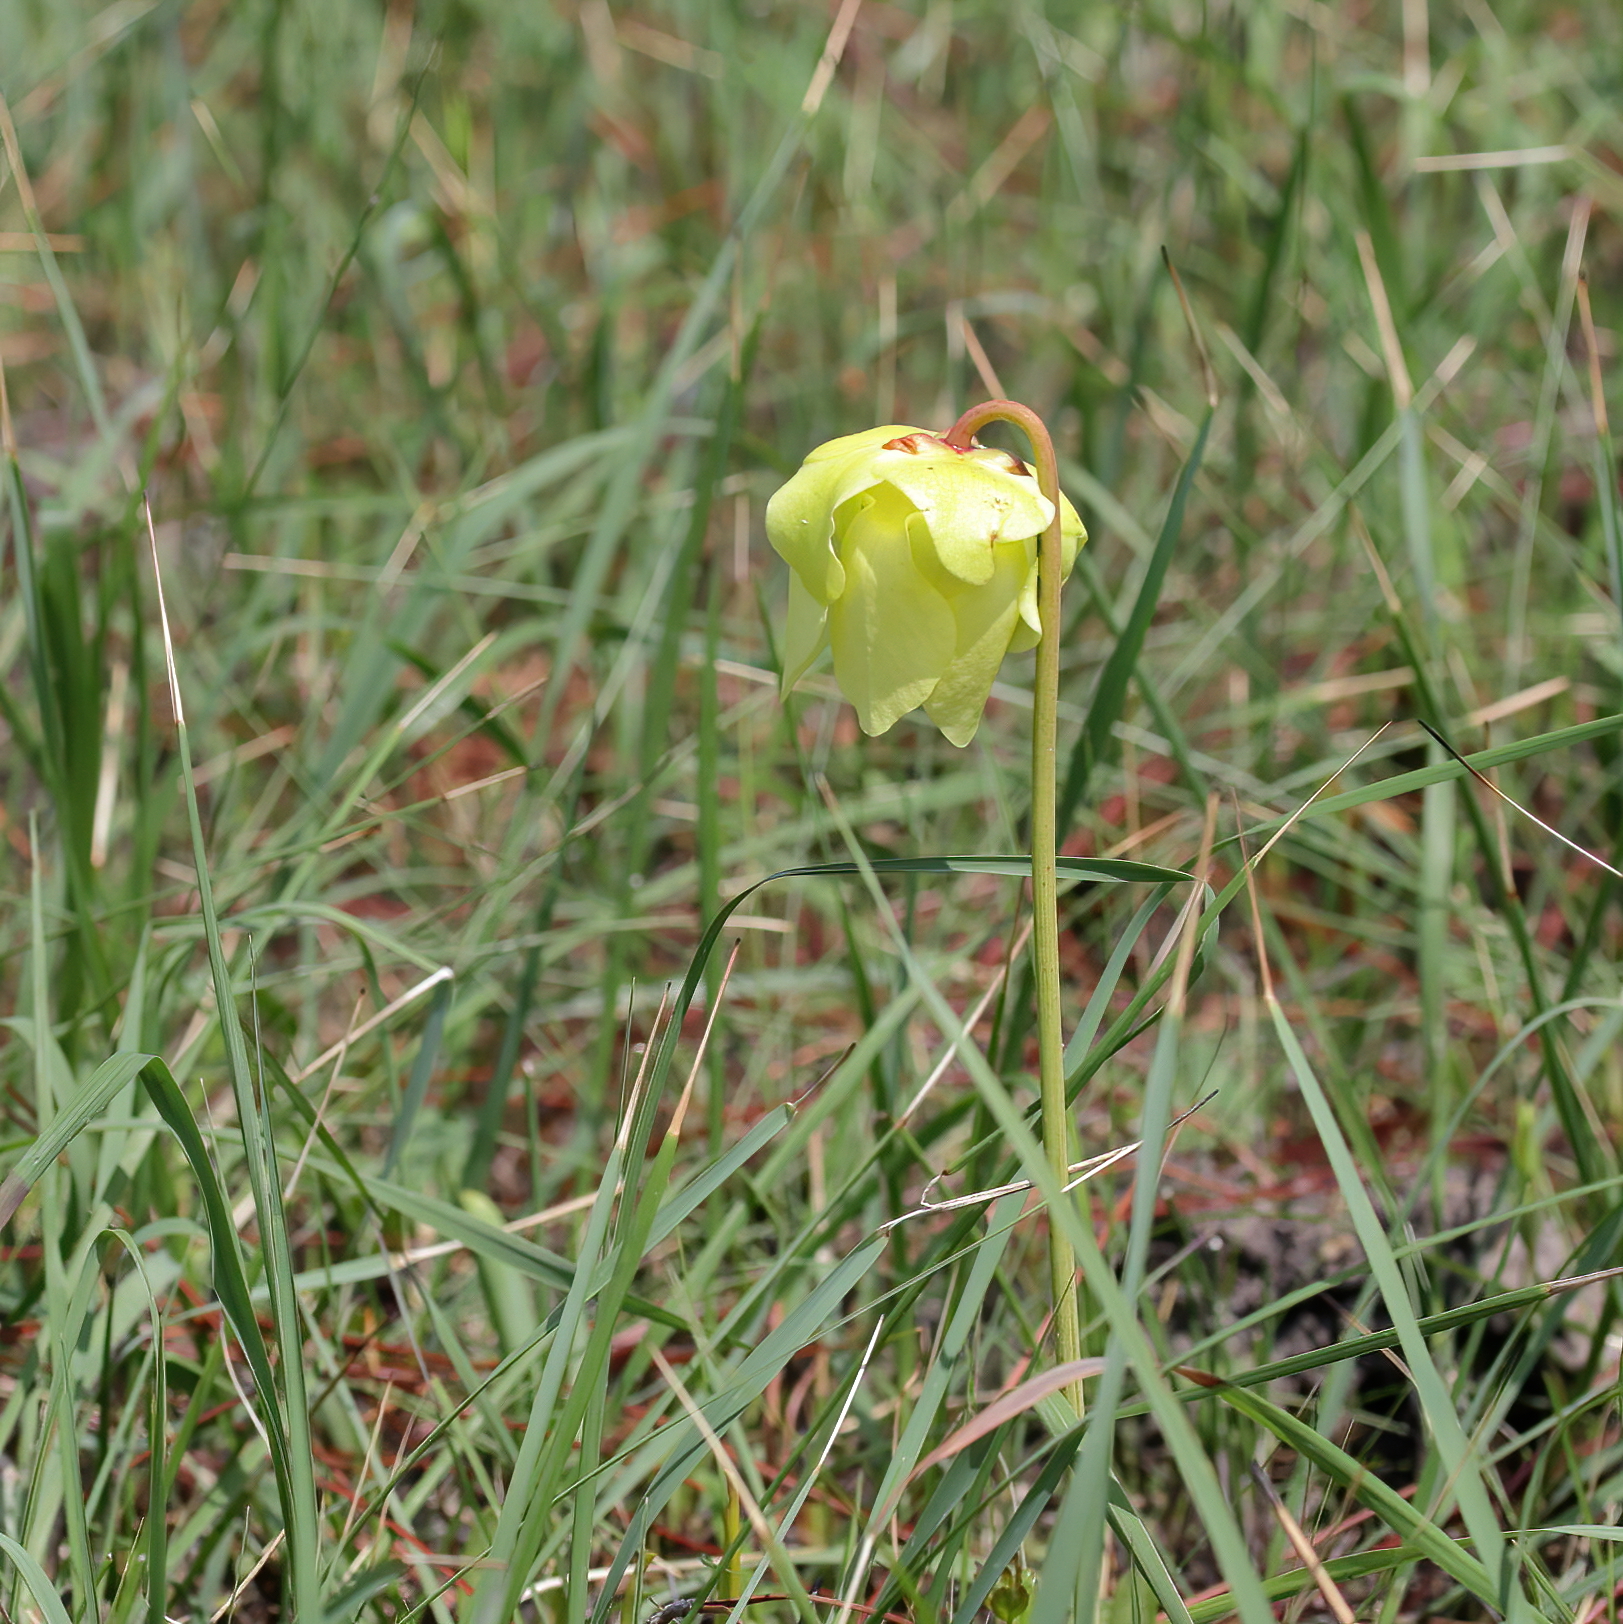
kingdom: Plantae
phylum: Tracheophyta
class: Magnoliopsida
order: Ericales
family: Sarraceniaceae
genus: Sarracenia
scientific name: Sarracenia alata
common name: Yellow trumpets
